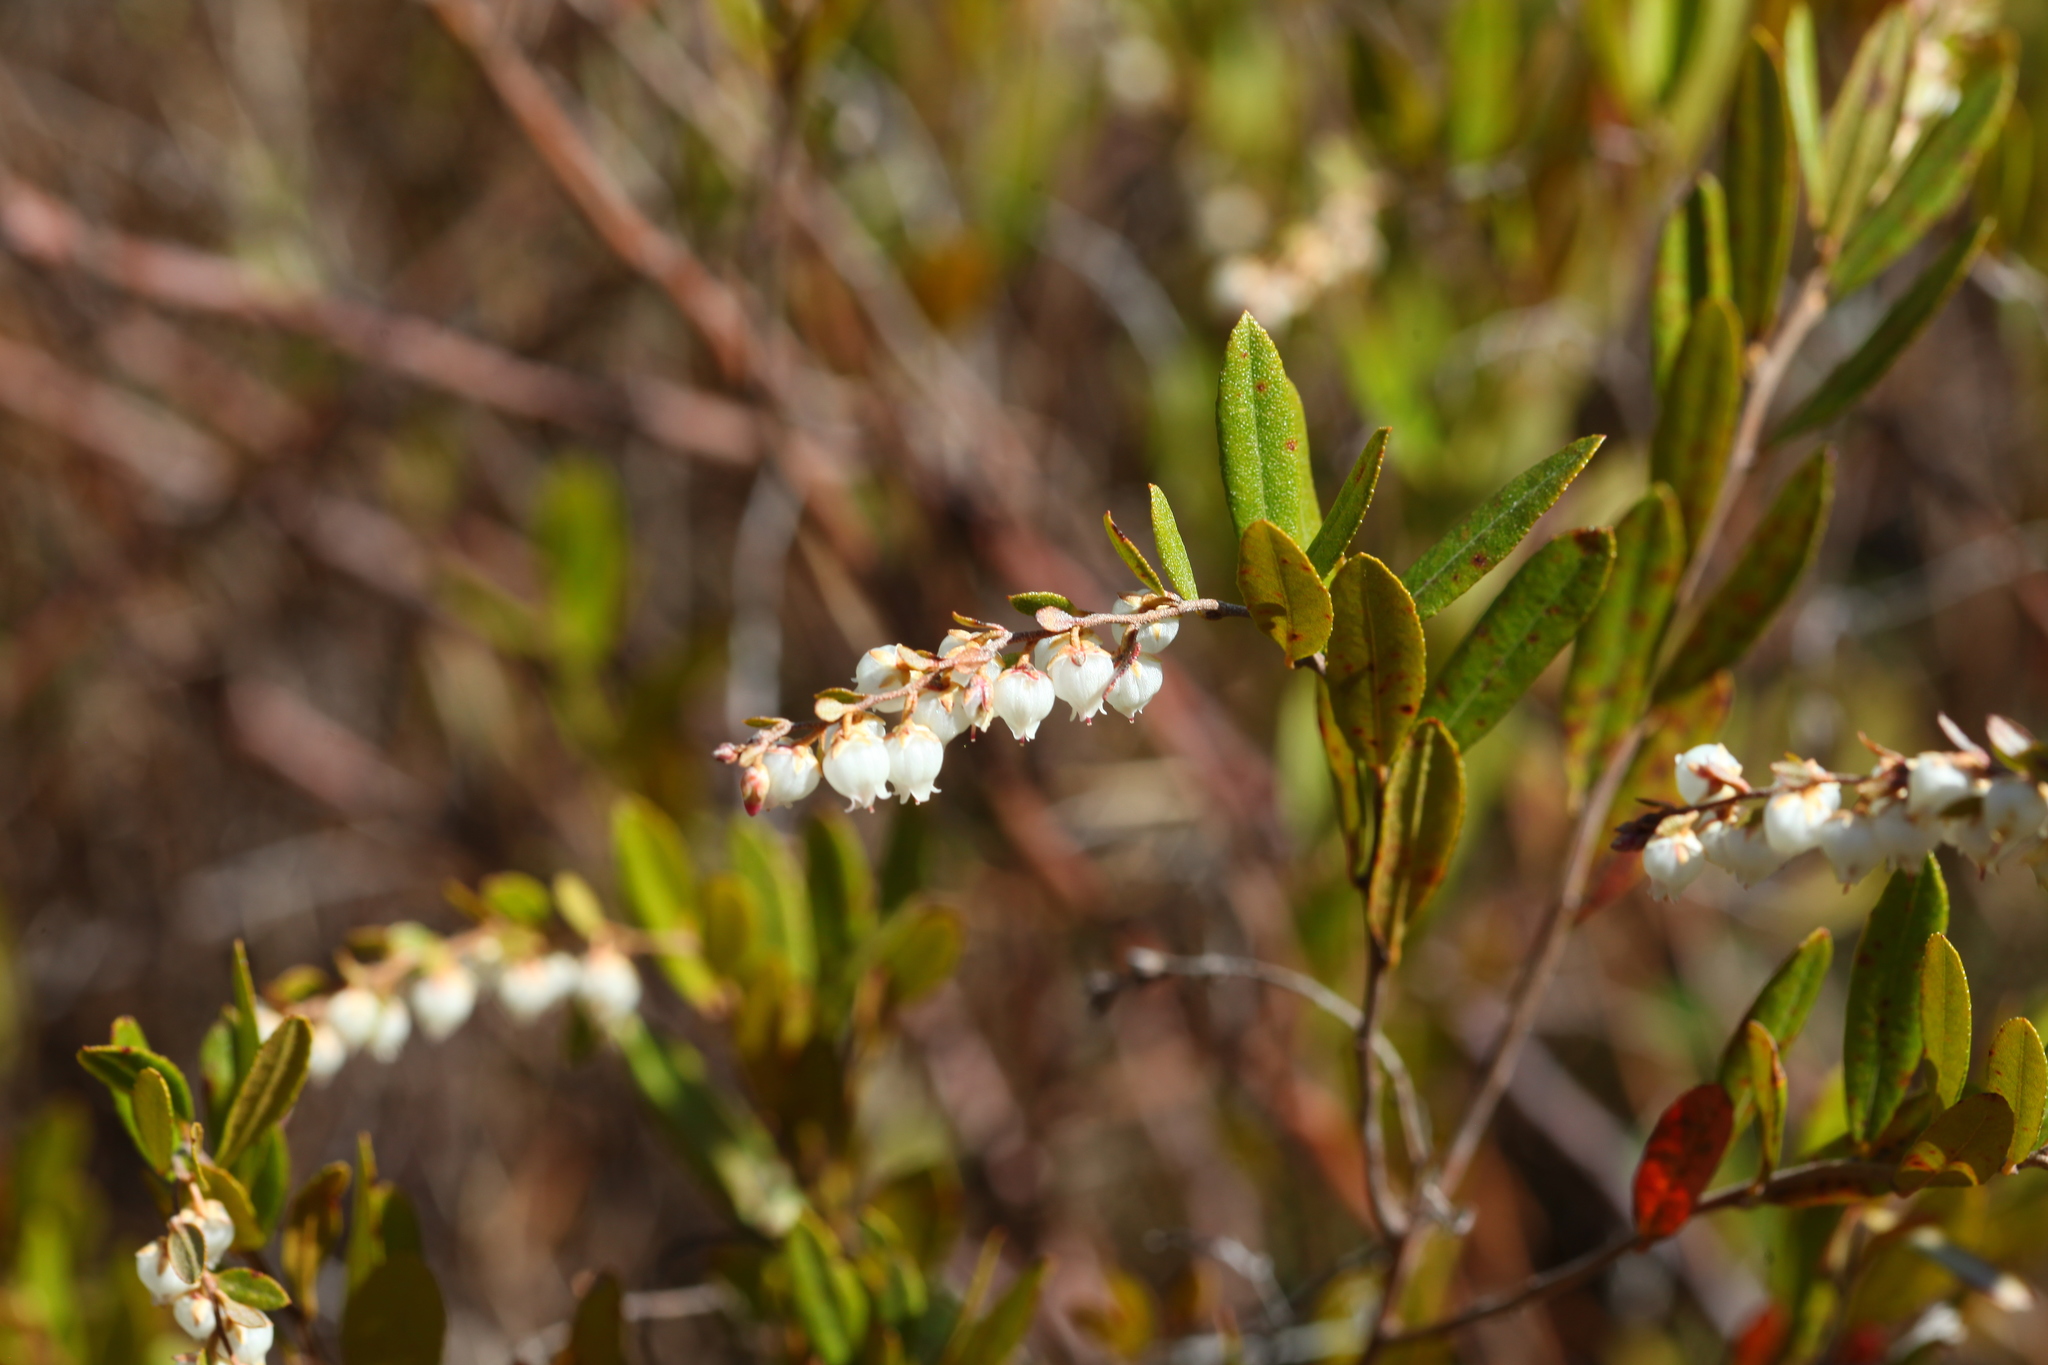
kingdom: Plantae
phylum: Tracheophyta
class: Magnoliopsida
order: Ericales
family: Ericaceae
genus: Chamaedaphne
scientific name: Chamaedaphne calyculata
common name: Leatherleaf
